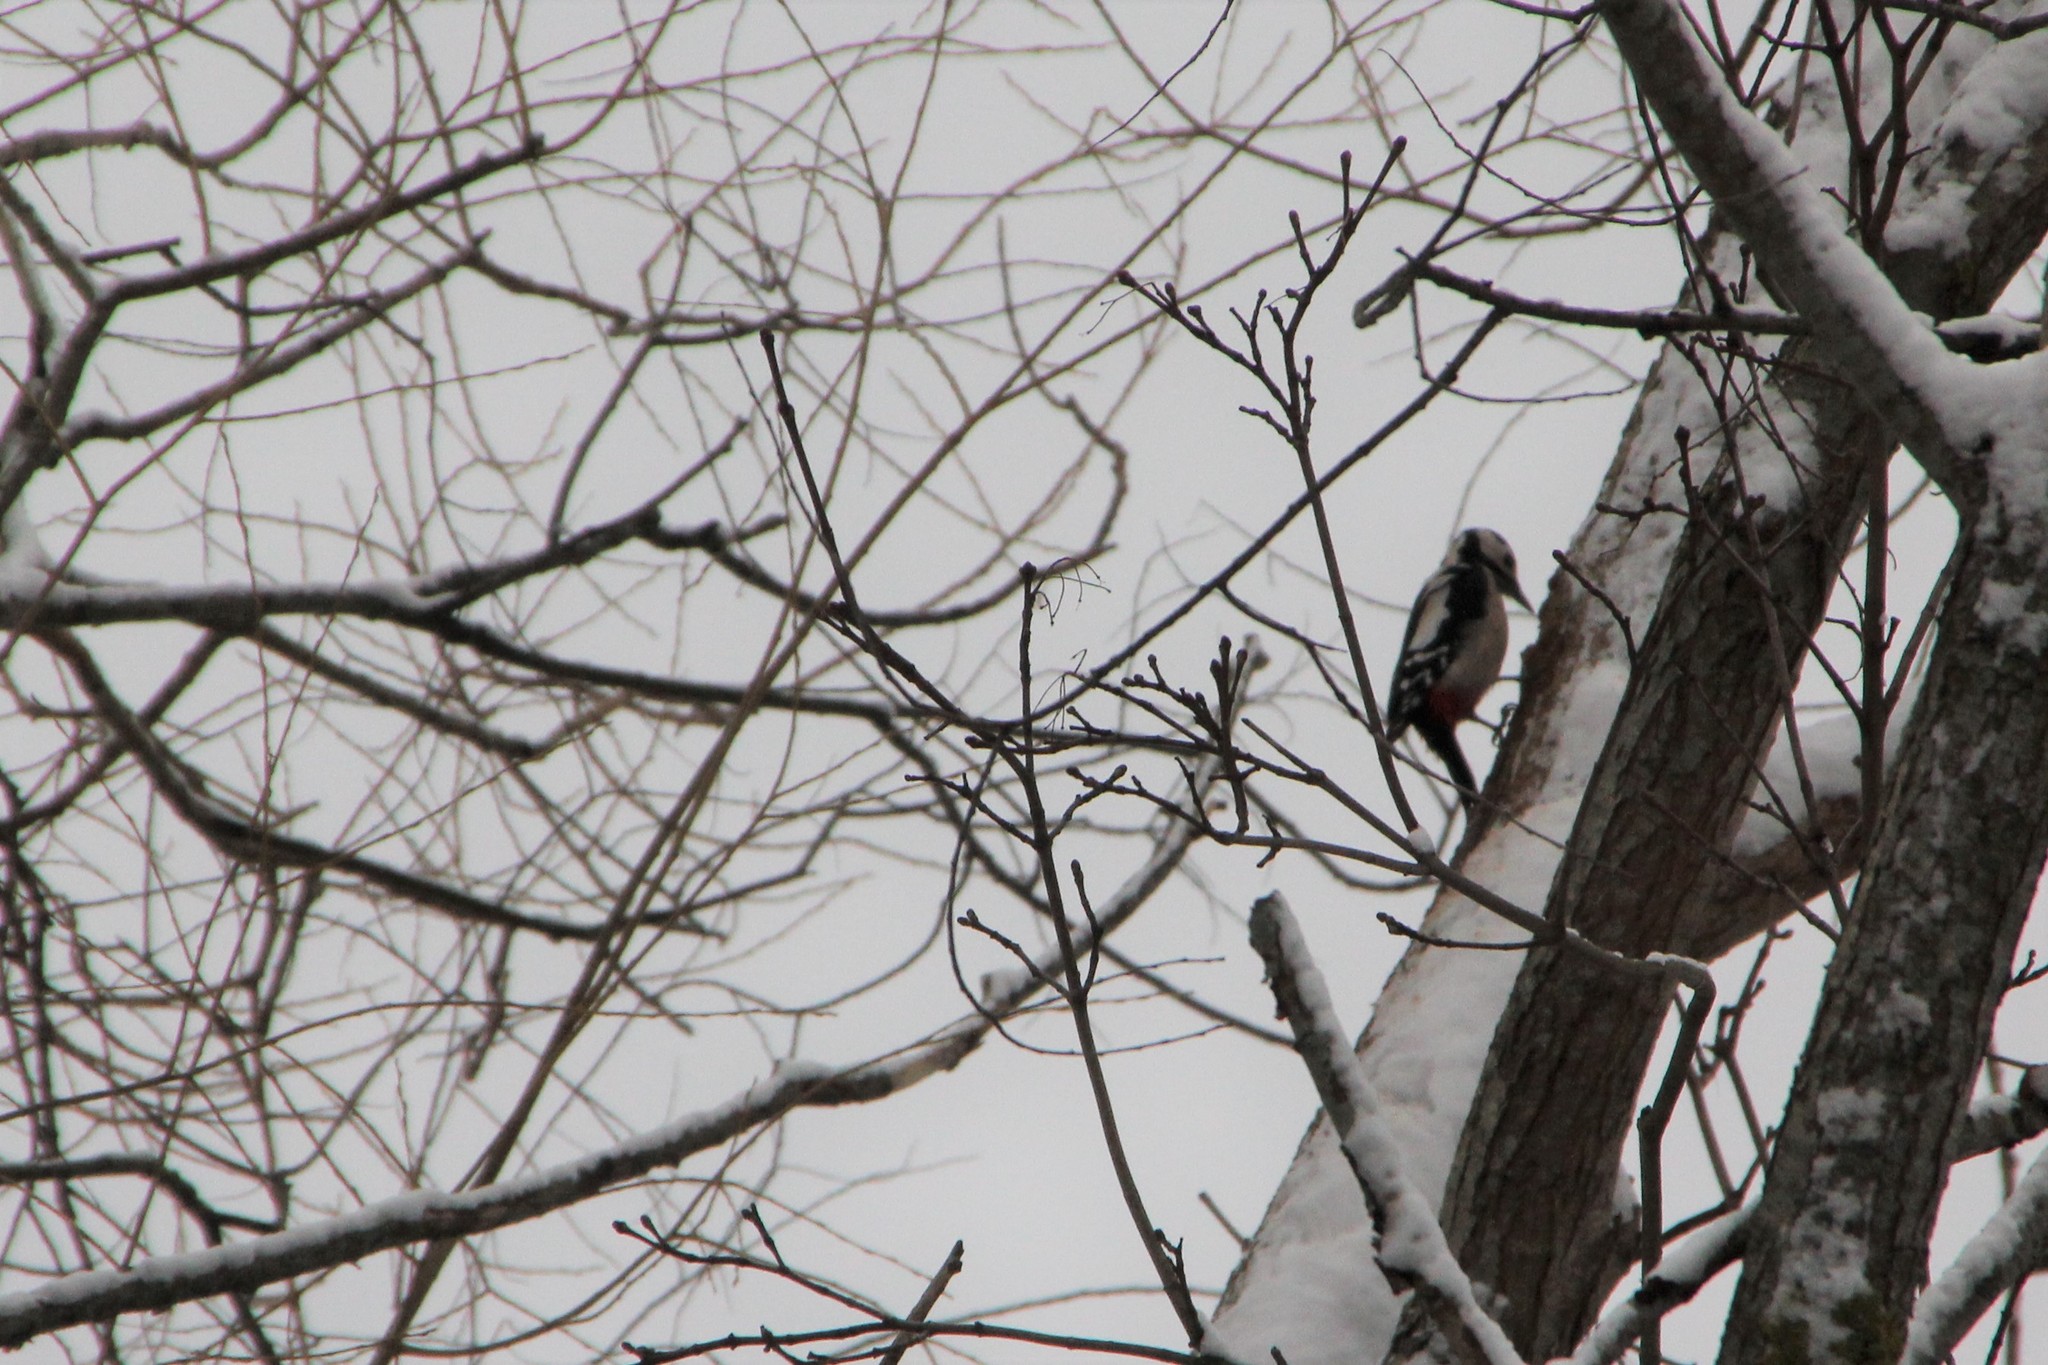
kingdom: Animalia
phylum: Chordata
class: Aves
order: Piciformes
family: Picidae
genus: Dendrocopos
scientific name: Dendrocopos major
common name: Great spotted woodpecker
